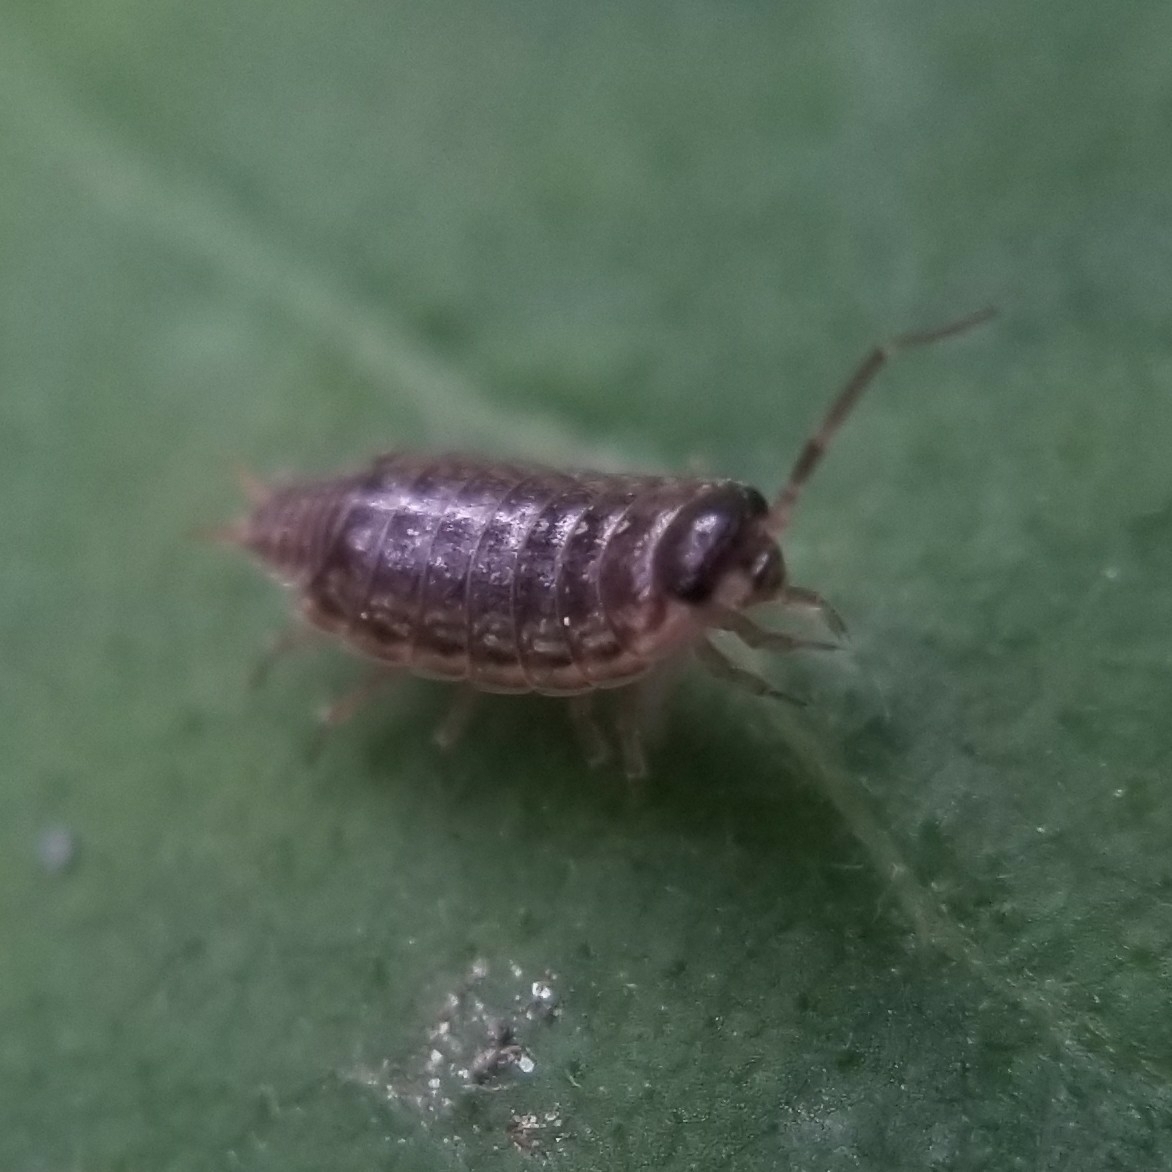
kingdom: Animalia
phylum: Arthropoda
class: Malacostraca
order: Isopoda
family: Philosciidae
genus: Philoscia
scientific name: Philoscia muscorum
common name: Common striped woodlouse
